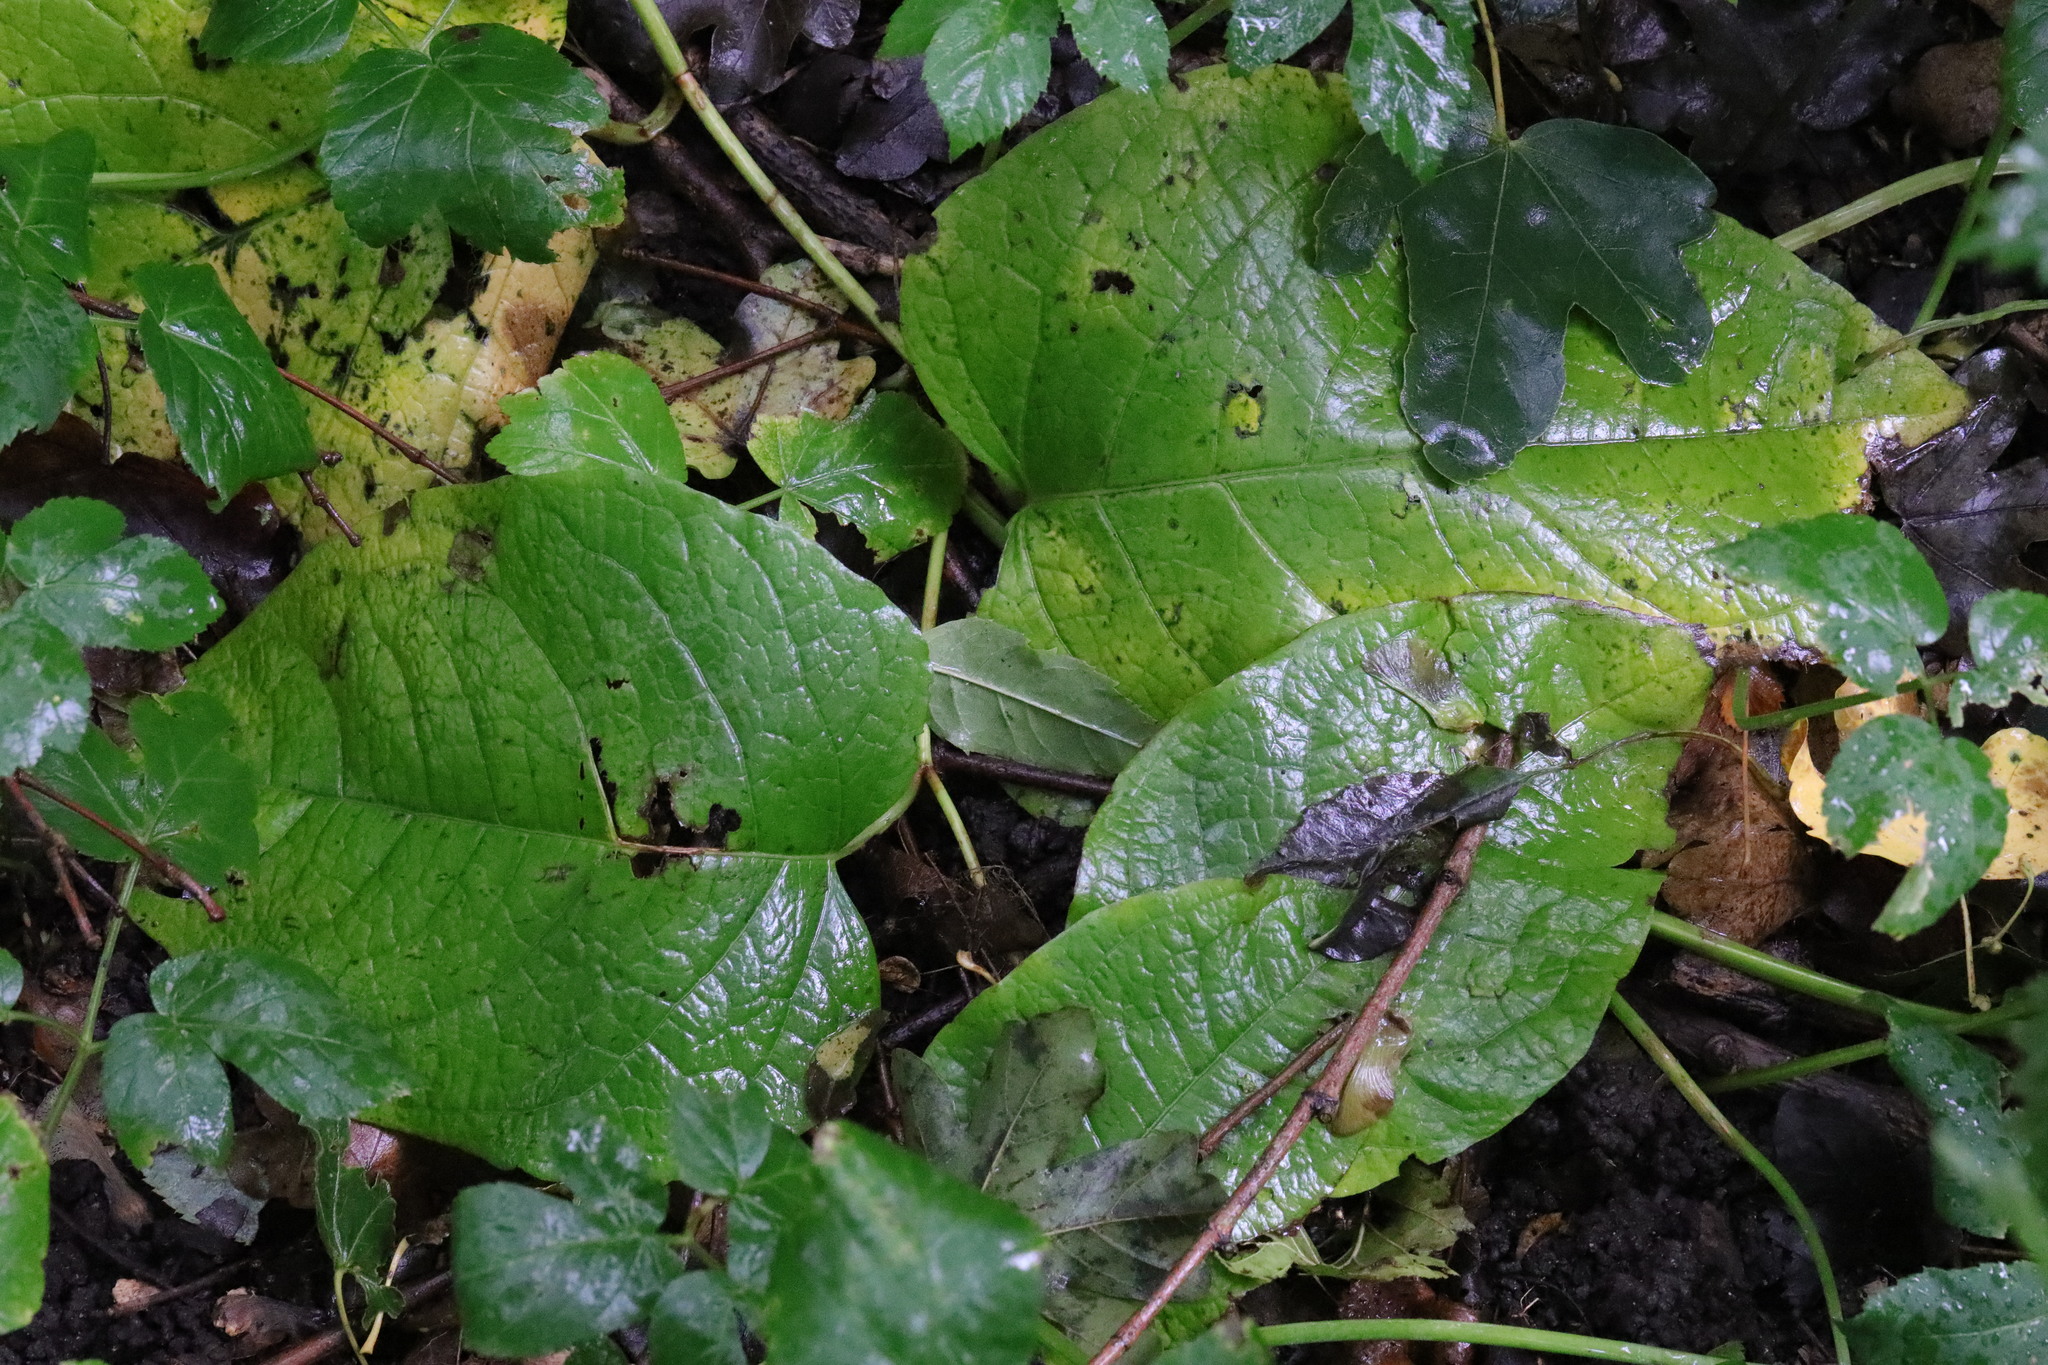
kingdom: Plantae
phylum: Tracheophyta
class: Magnoliopsida
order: Caryophyllales
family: Polygonaceae
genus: Reynoutria
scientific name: Reynoutria sachalinensis
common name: Giant knotweed
